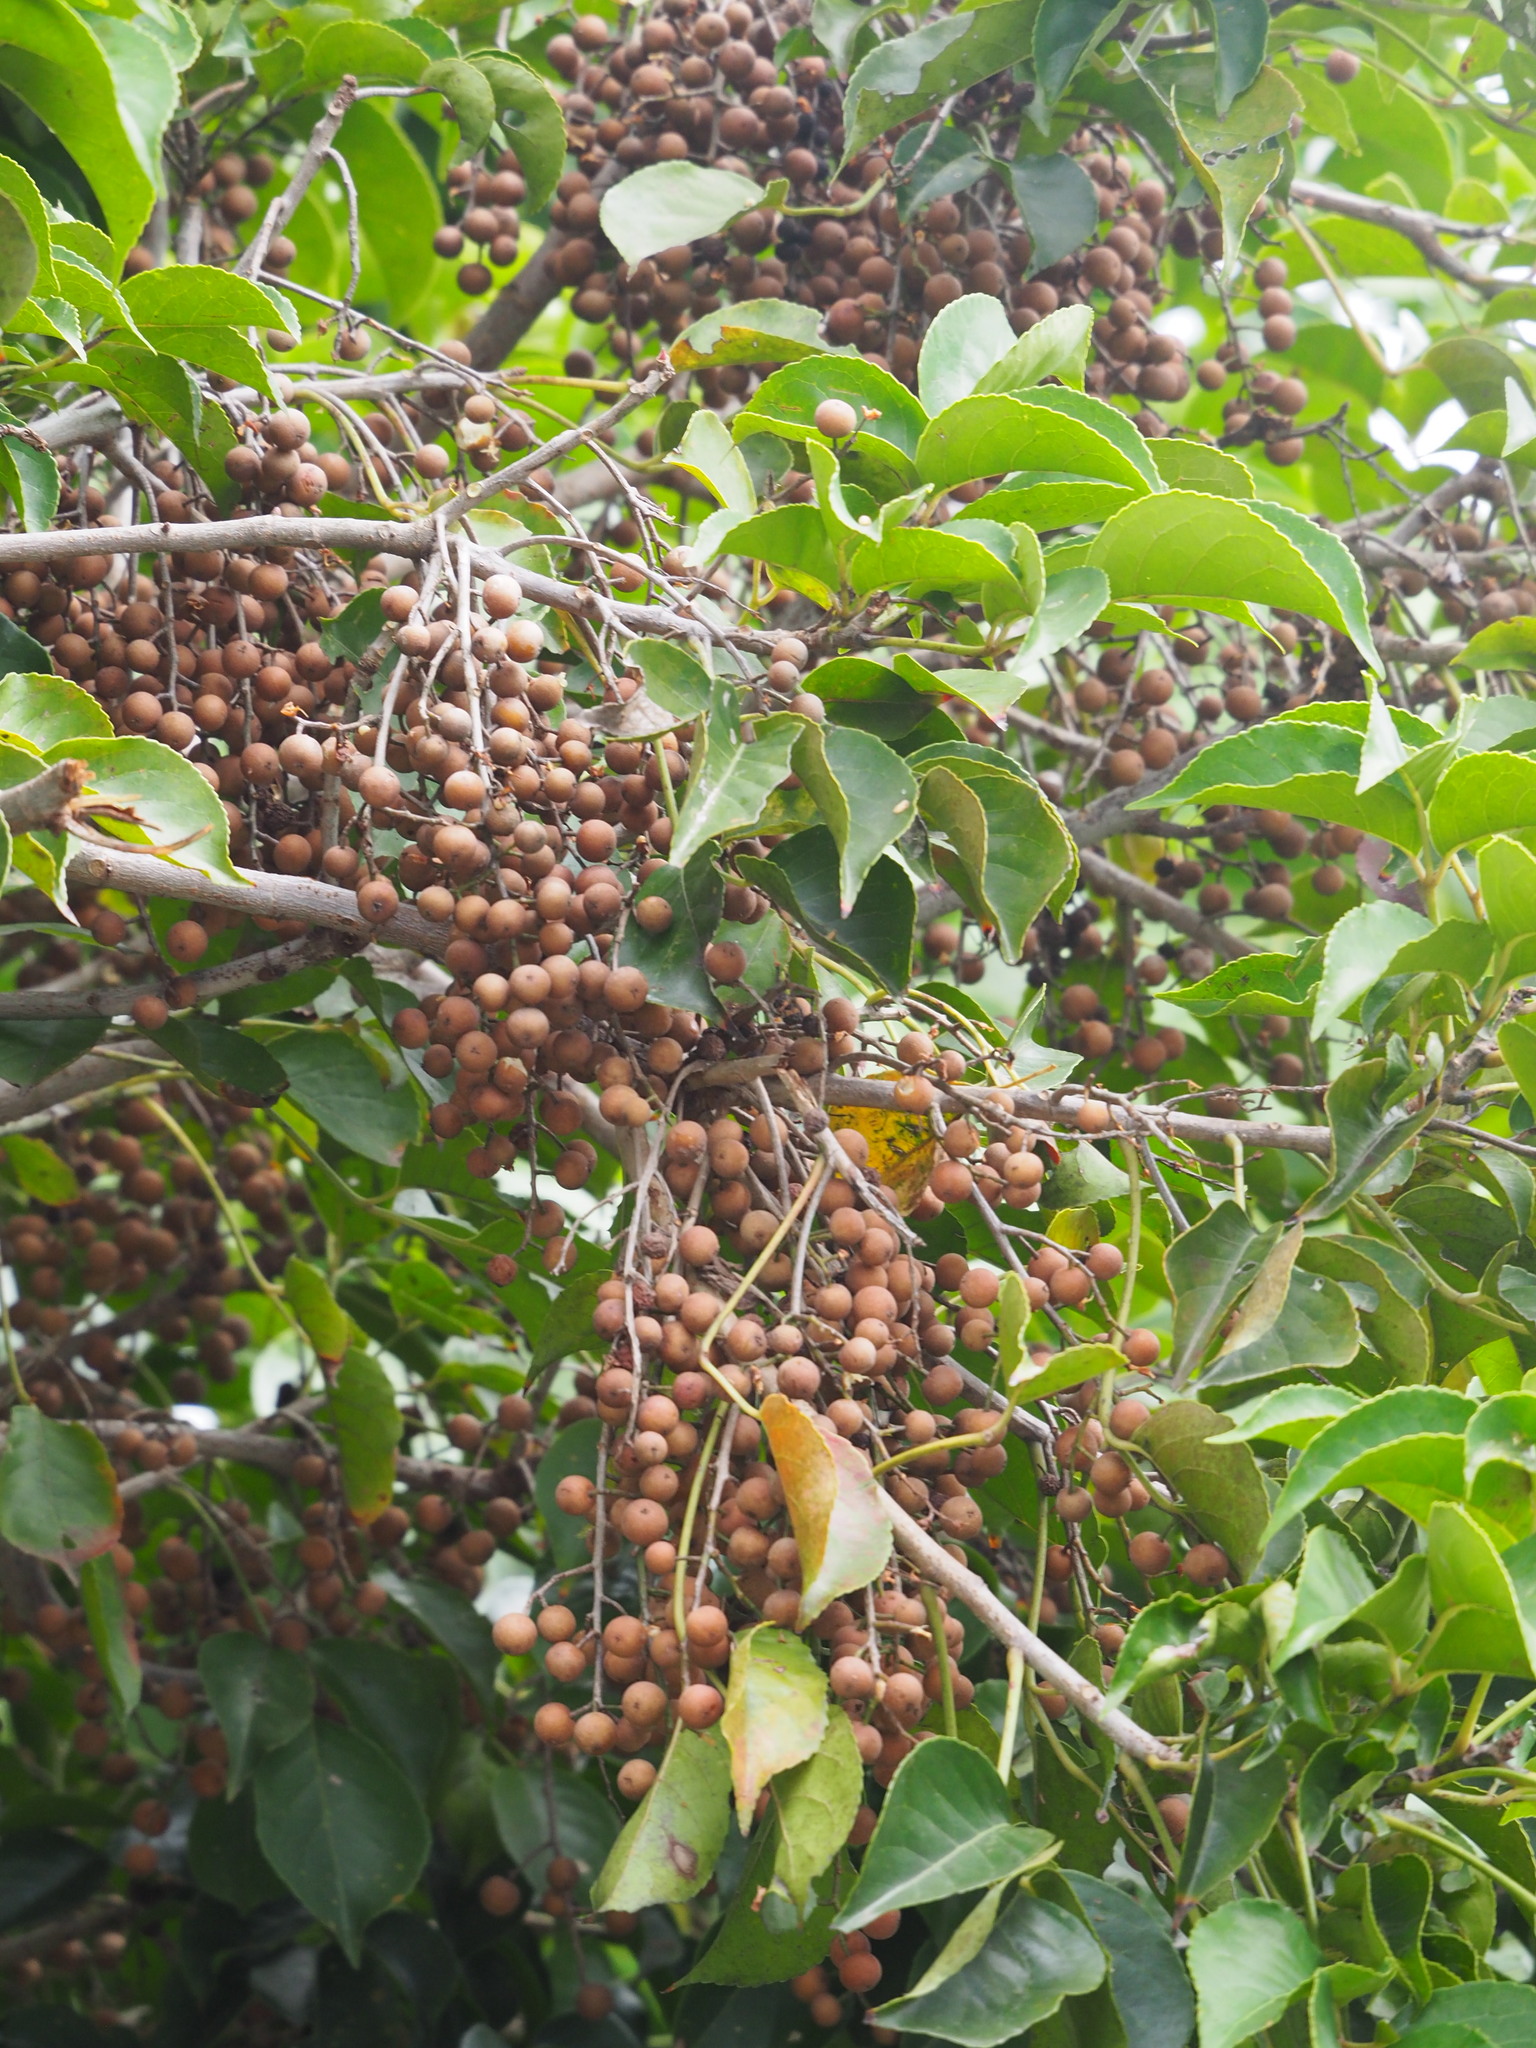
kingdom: Plantae
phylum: Tracheophyta
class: Magnoliopsida
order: Malpighiales
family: Phyllanthaceae
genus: Bischofia
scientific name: Bischofia javanica
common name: Javanese bishopwood
